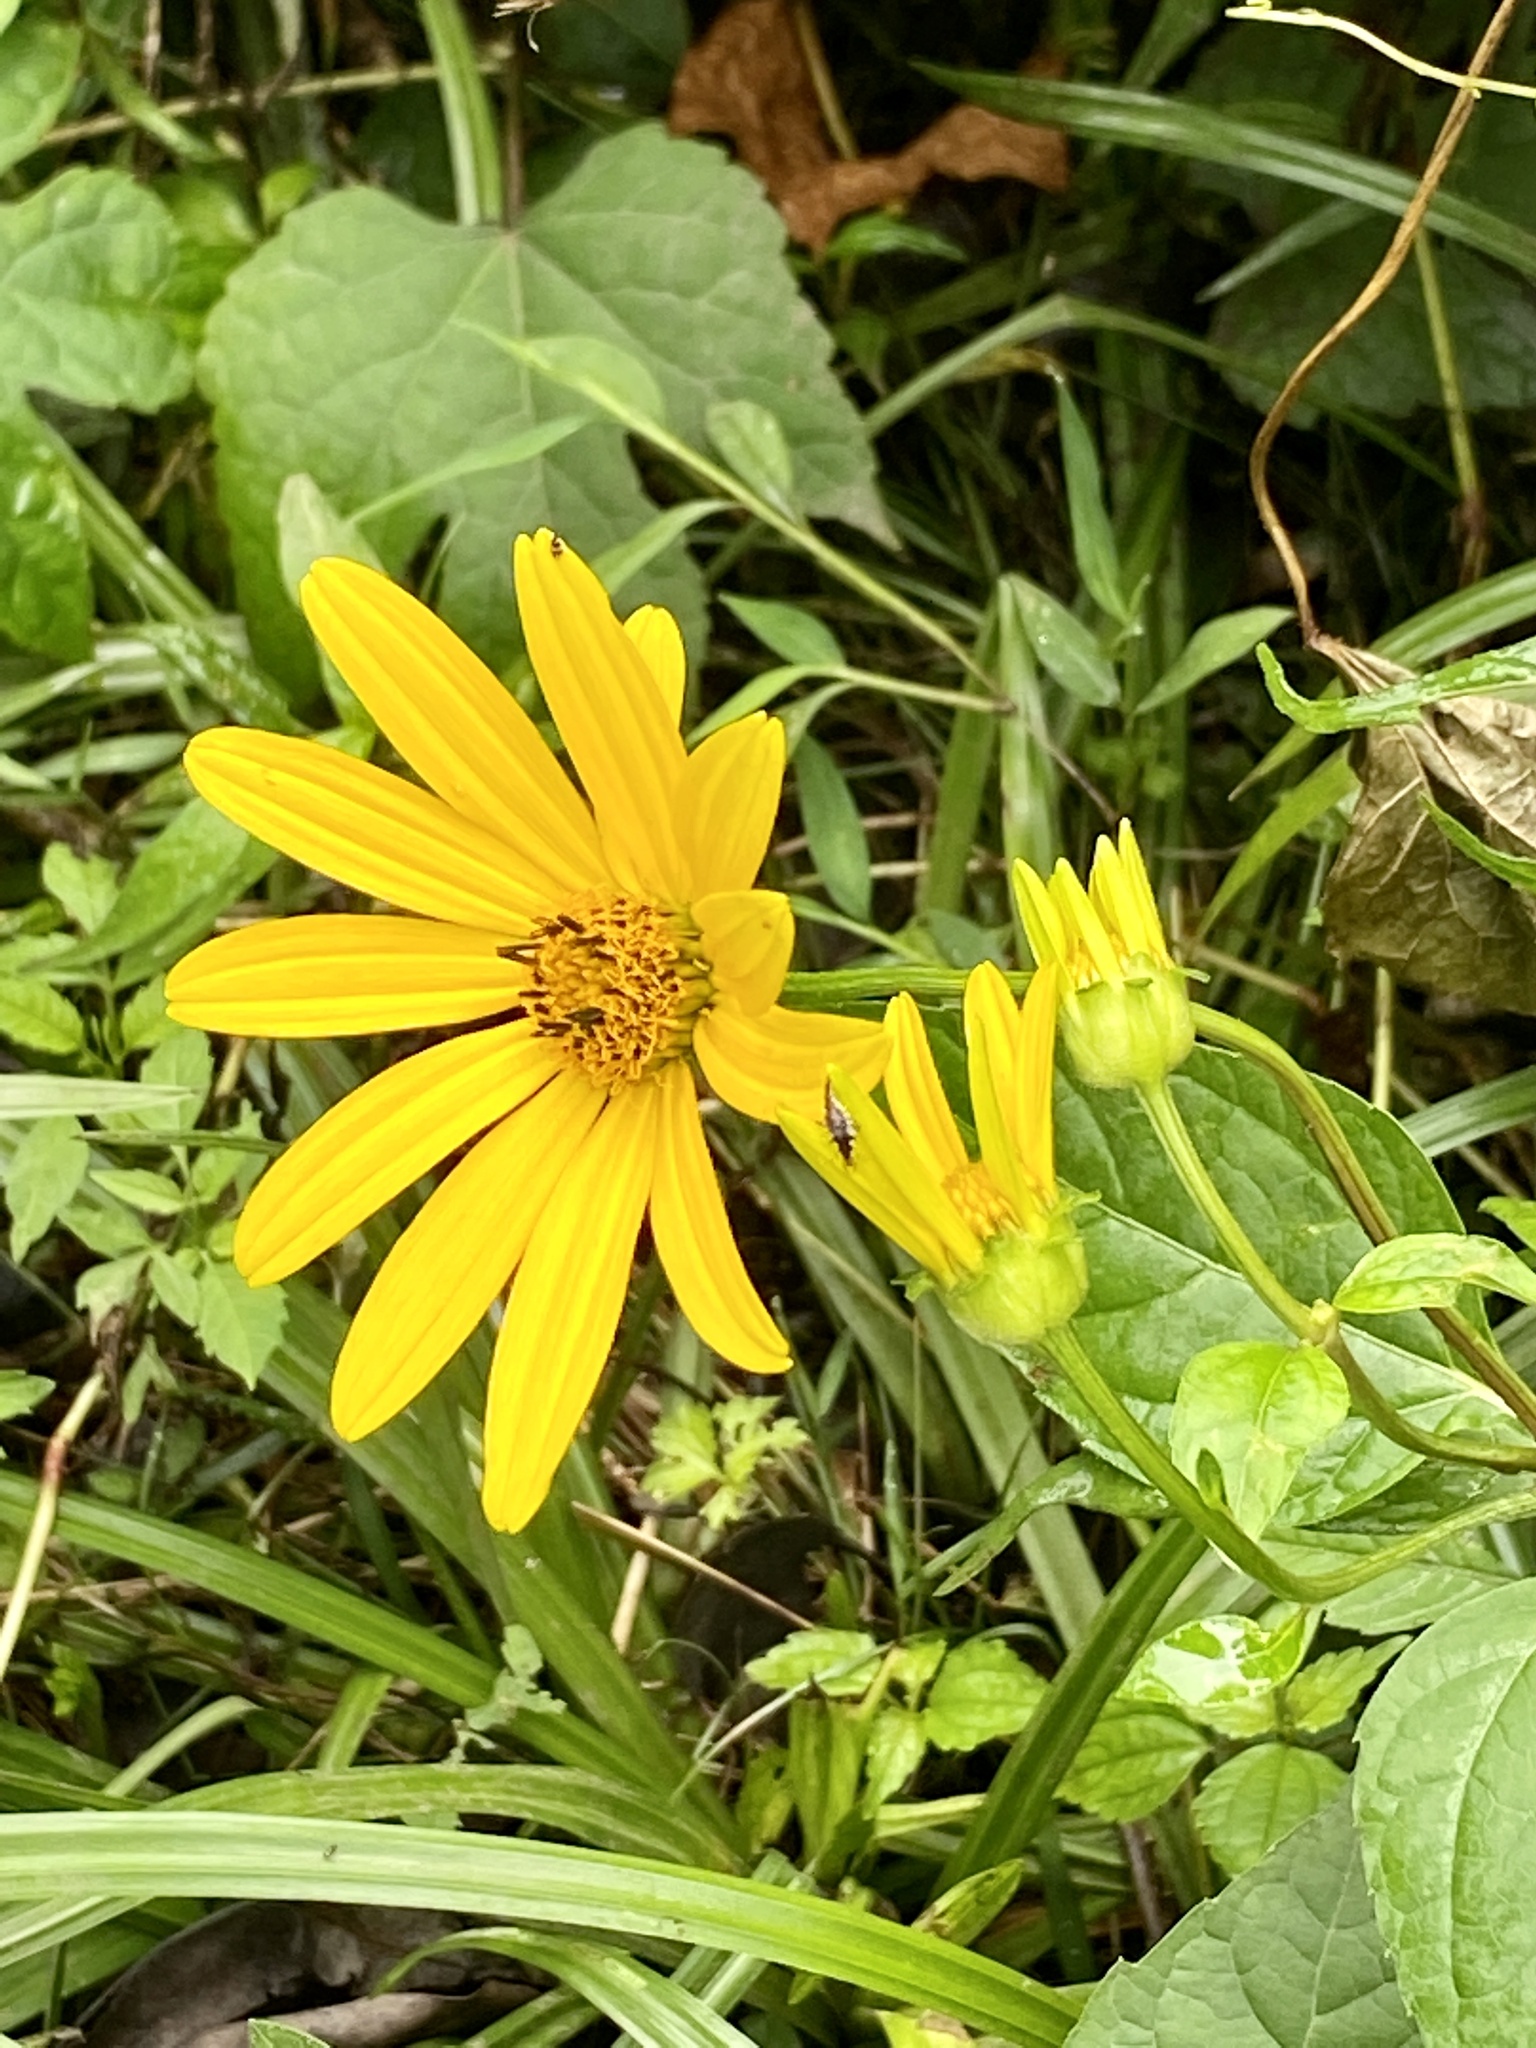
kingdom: Plantae
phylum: Tracheophyta
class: Magnoliopsida
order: Asterales
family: Asteraceae
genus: Heliopsis
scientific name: Heliopsis helianthoides
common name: False sunflower
